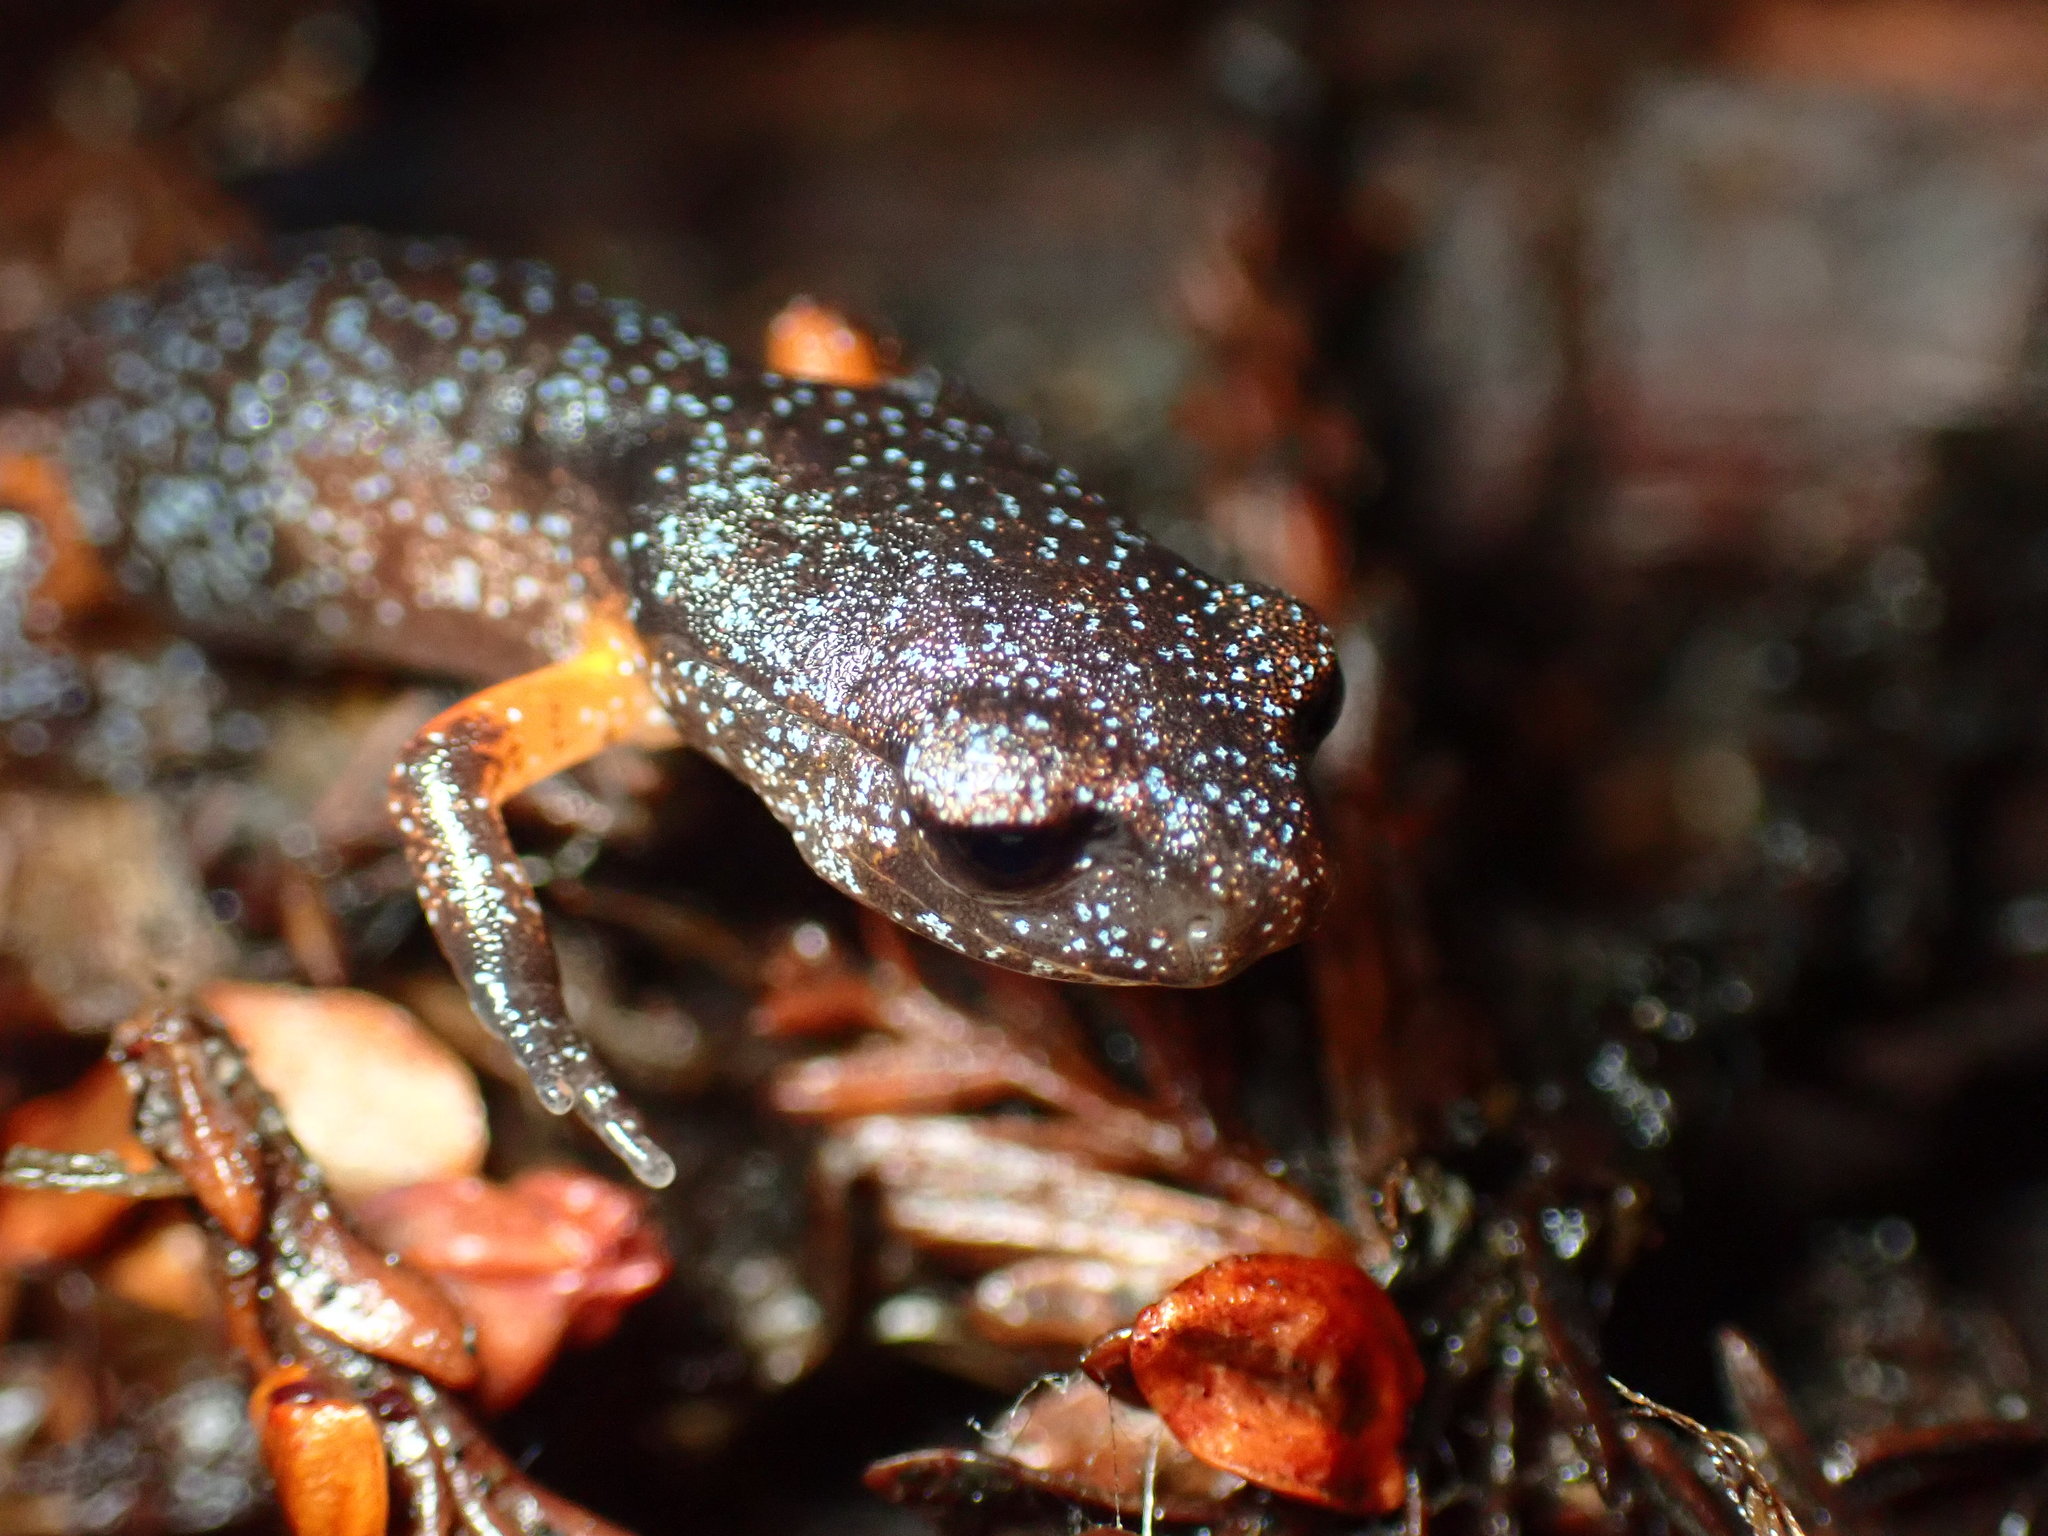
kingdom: Animalia
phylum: Chordata
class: Amphibia
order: Caudata
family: Plethodontidae
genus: Ensatina
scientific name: Ensatina eschscholtzii
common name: Ensatina
